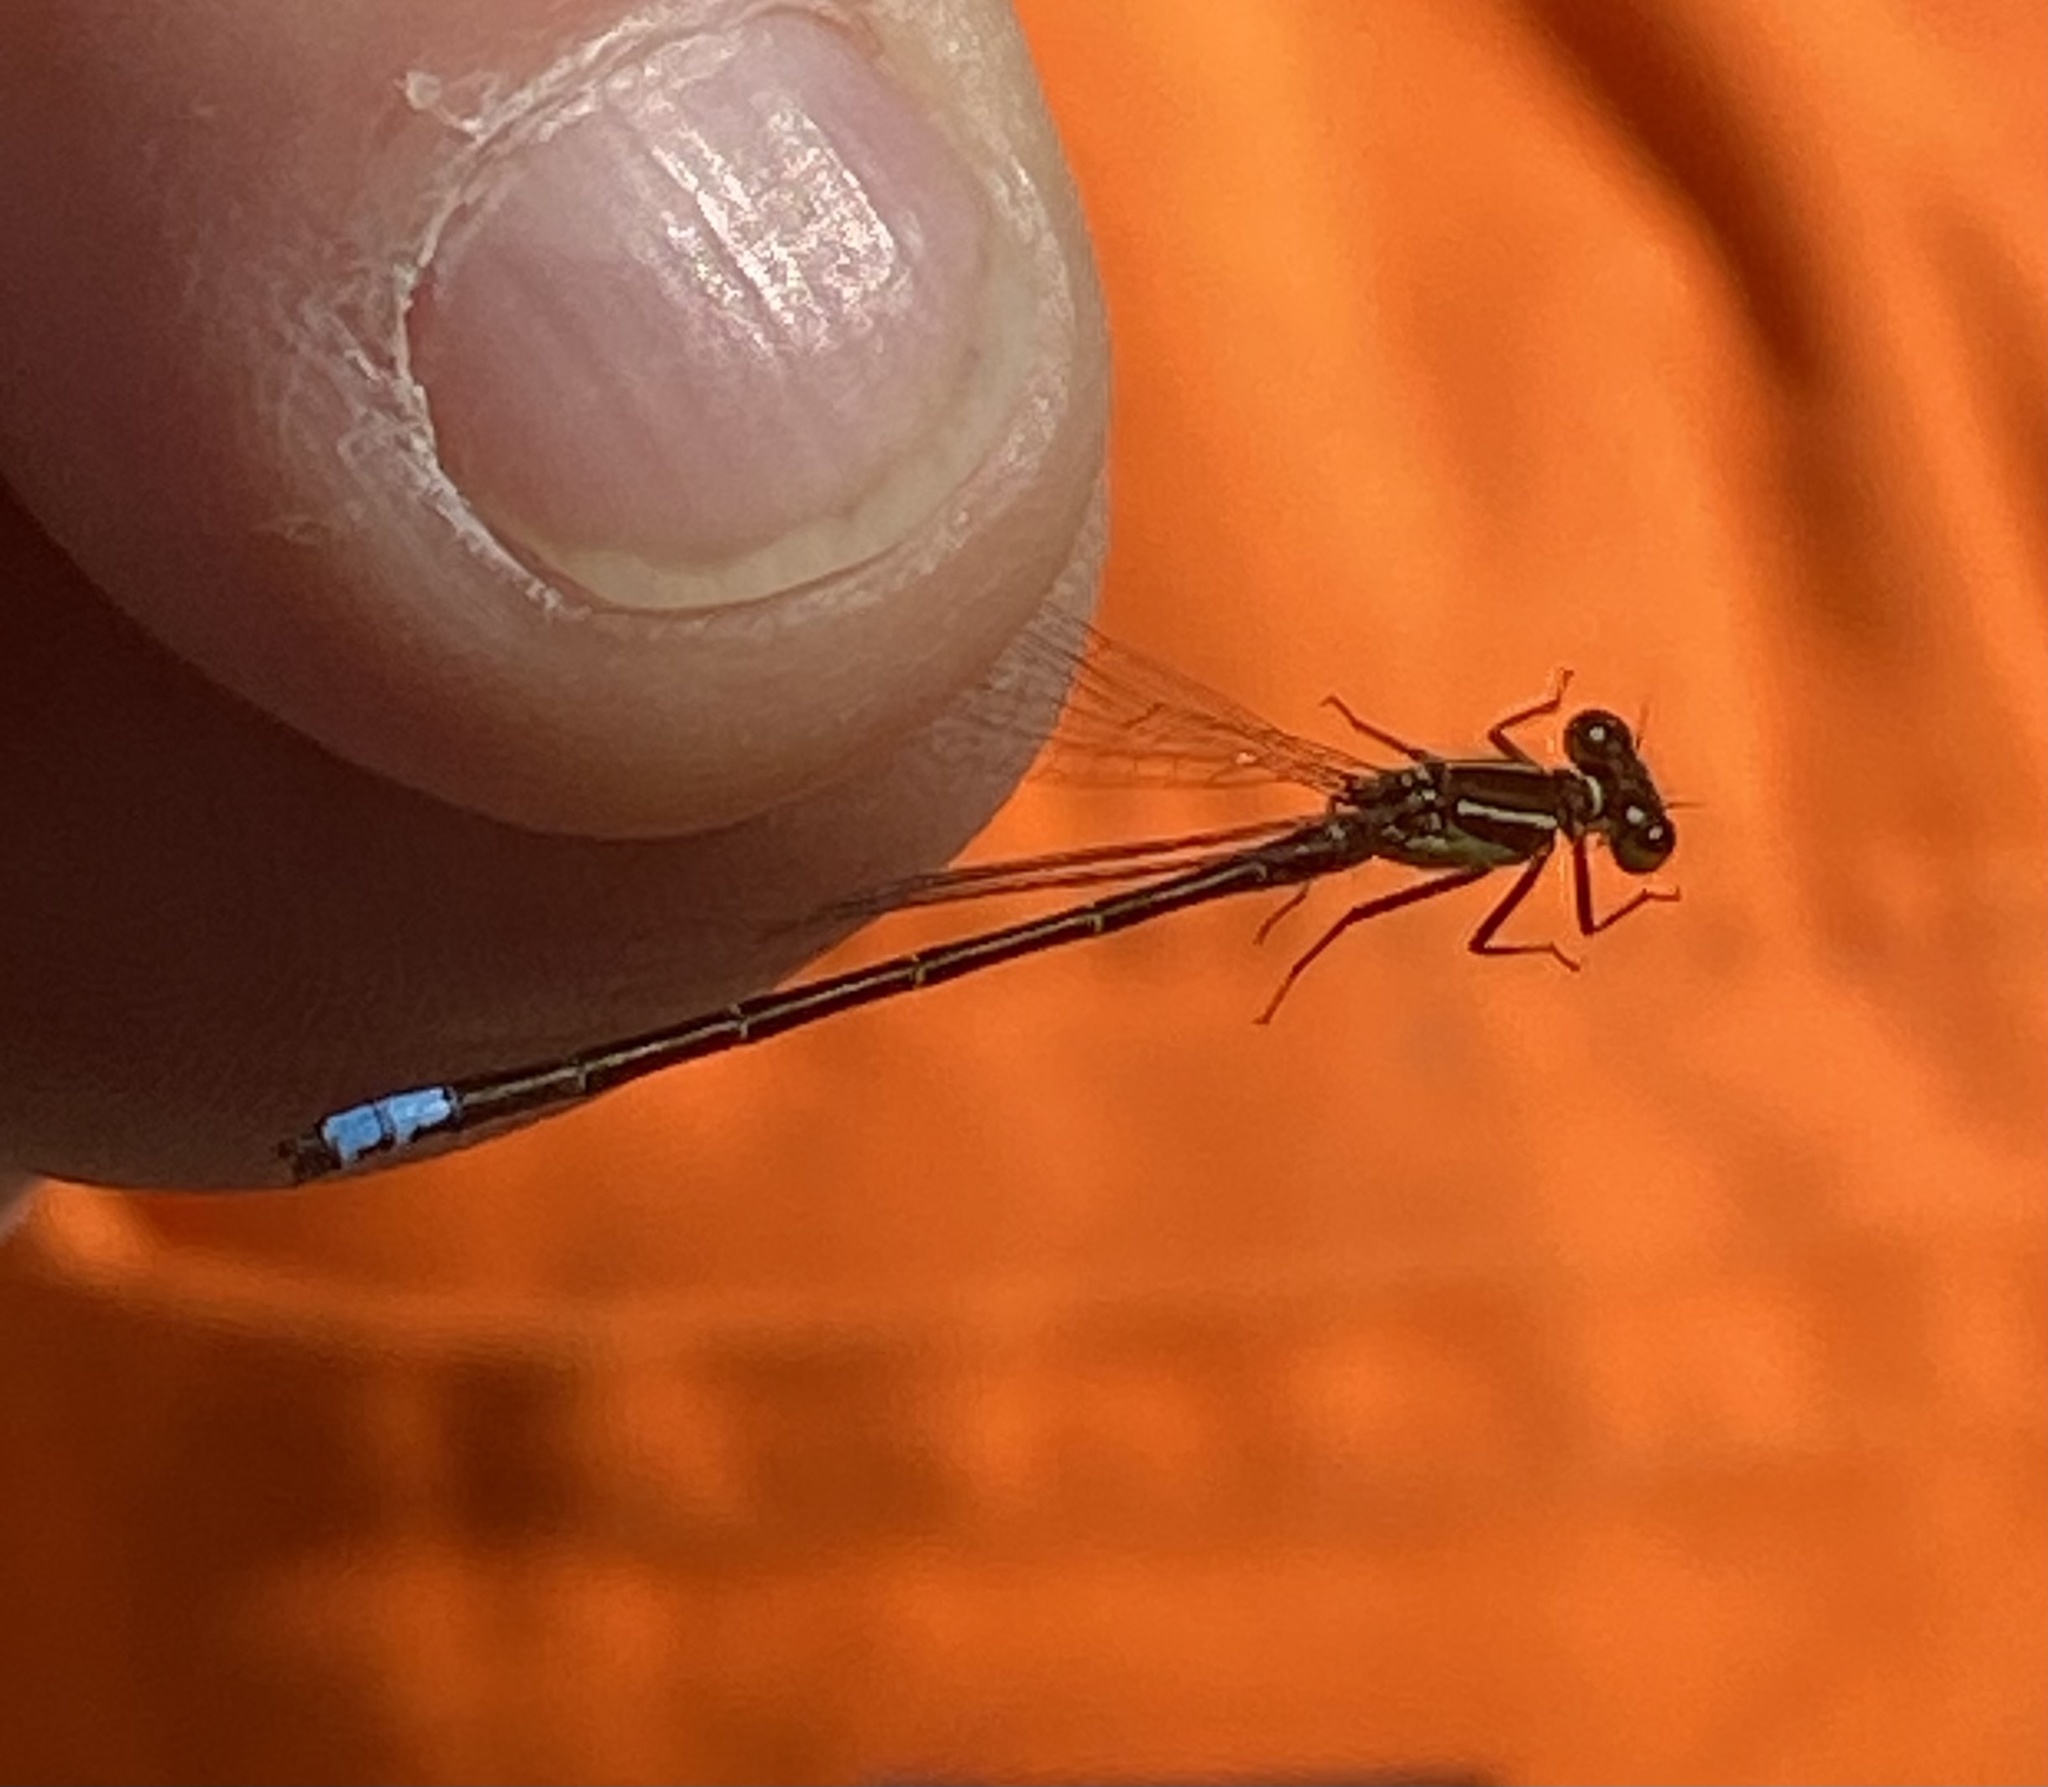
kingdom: Animalia
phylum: Arthropoda
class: Insecta
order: Odonata
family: Coenagrionidae
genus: Ischnura
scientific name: Ischnura verticalis
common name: Eastern forktail
